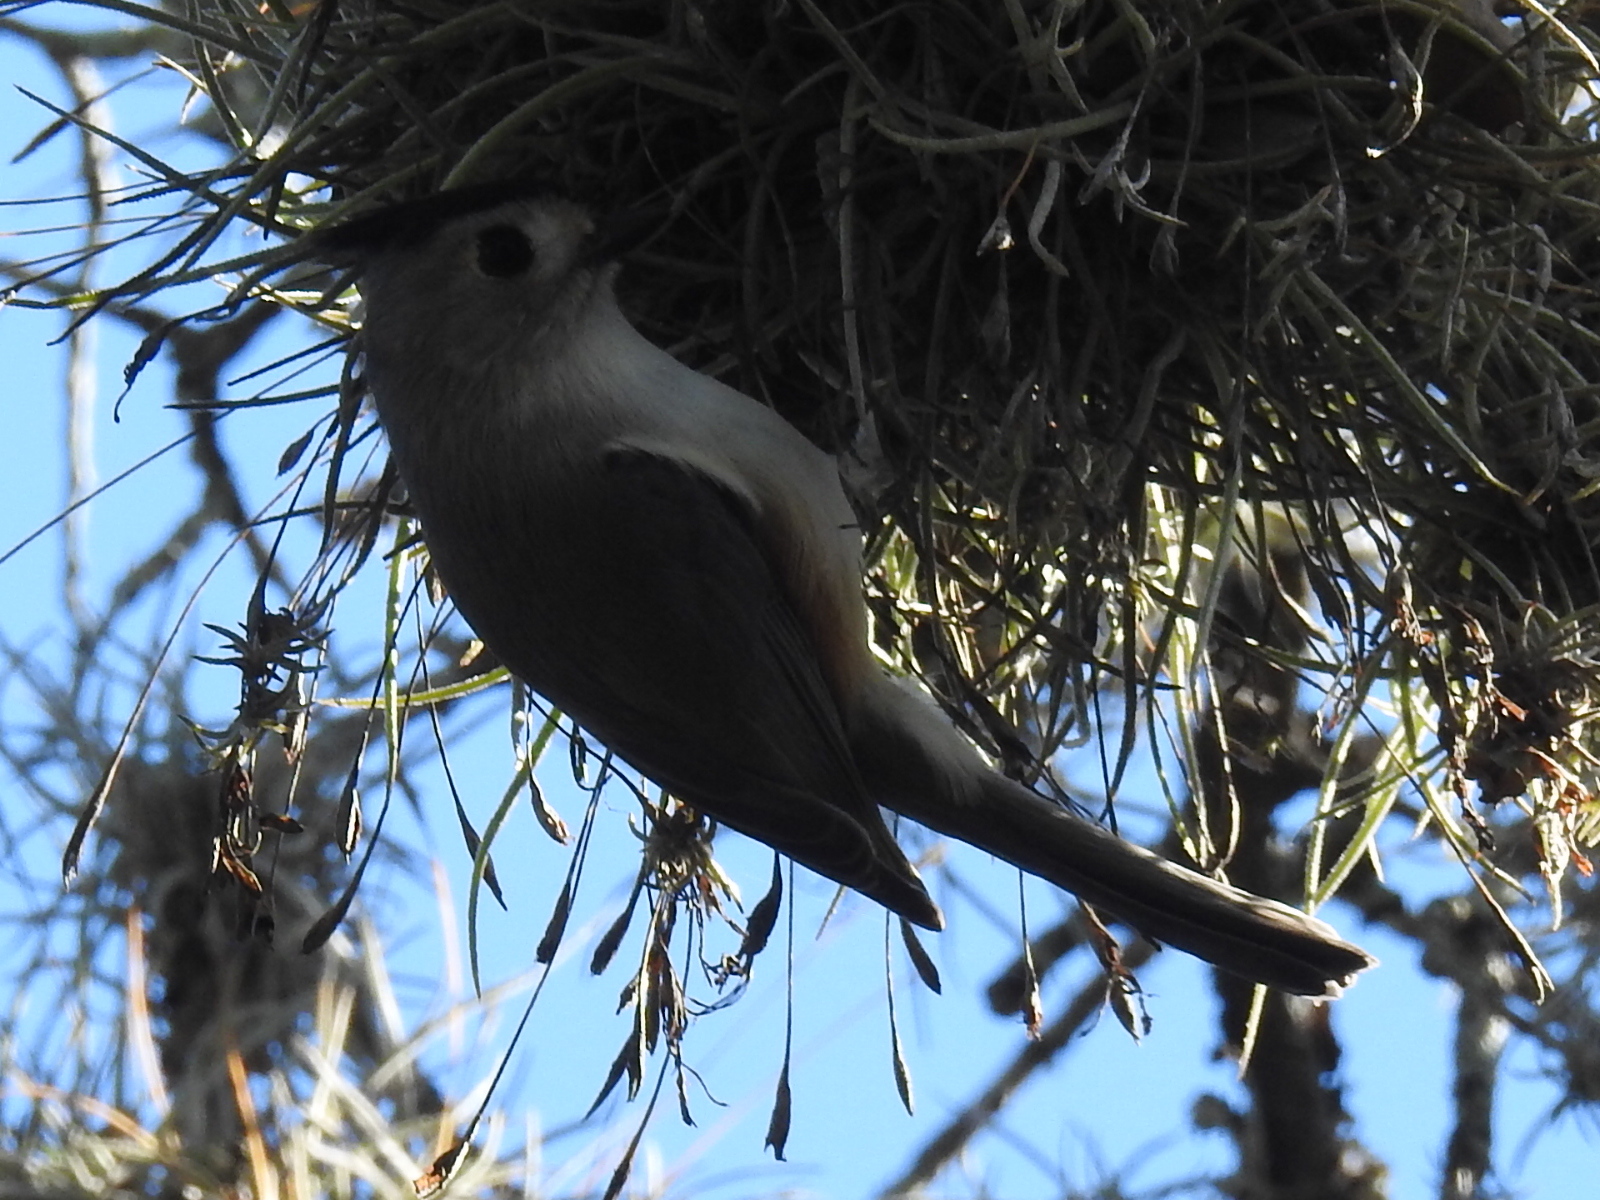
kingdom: Animalia
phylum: Chordata
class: Aves
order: Passeriformes
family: Paridae
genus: Baeolophus
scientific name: Baeolophus atricristatus
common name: Black-crested titmouse
